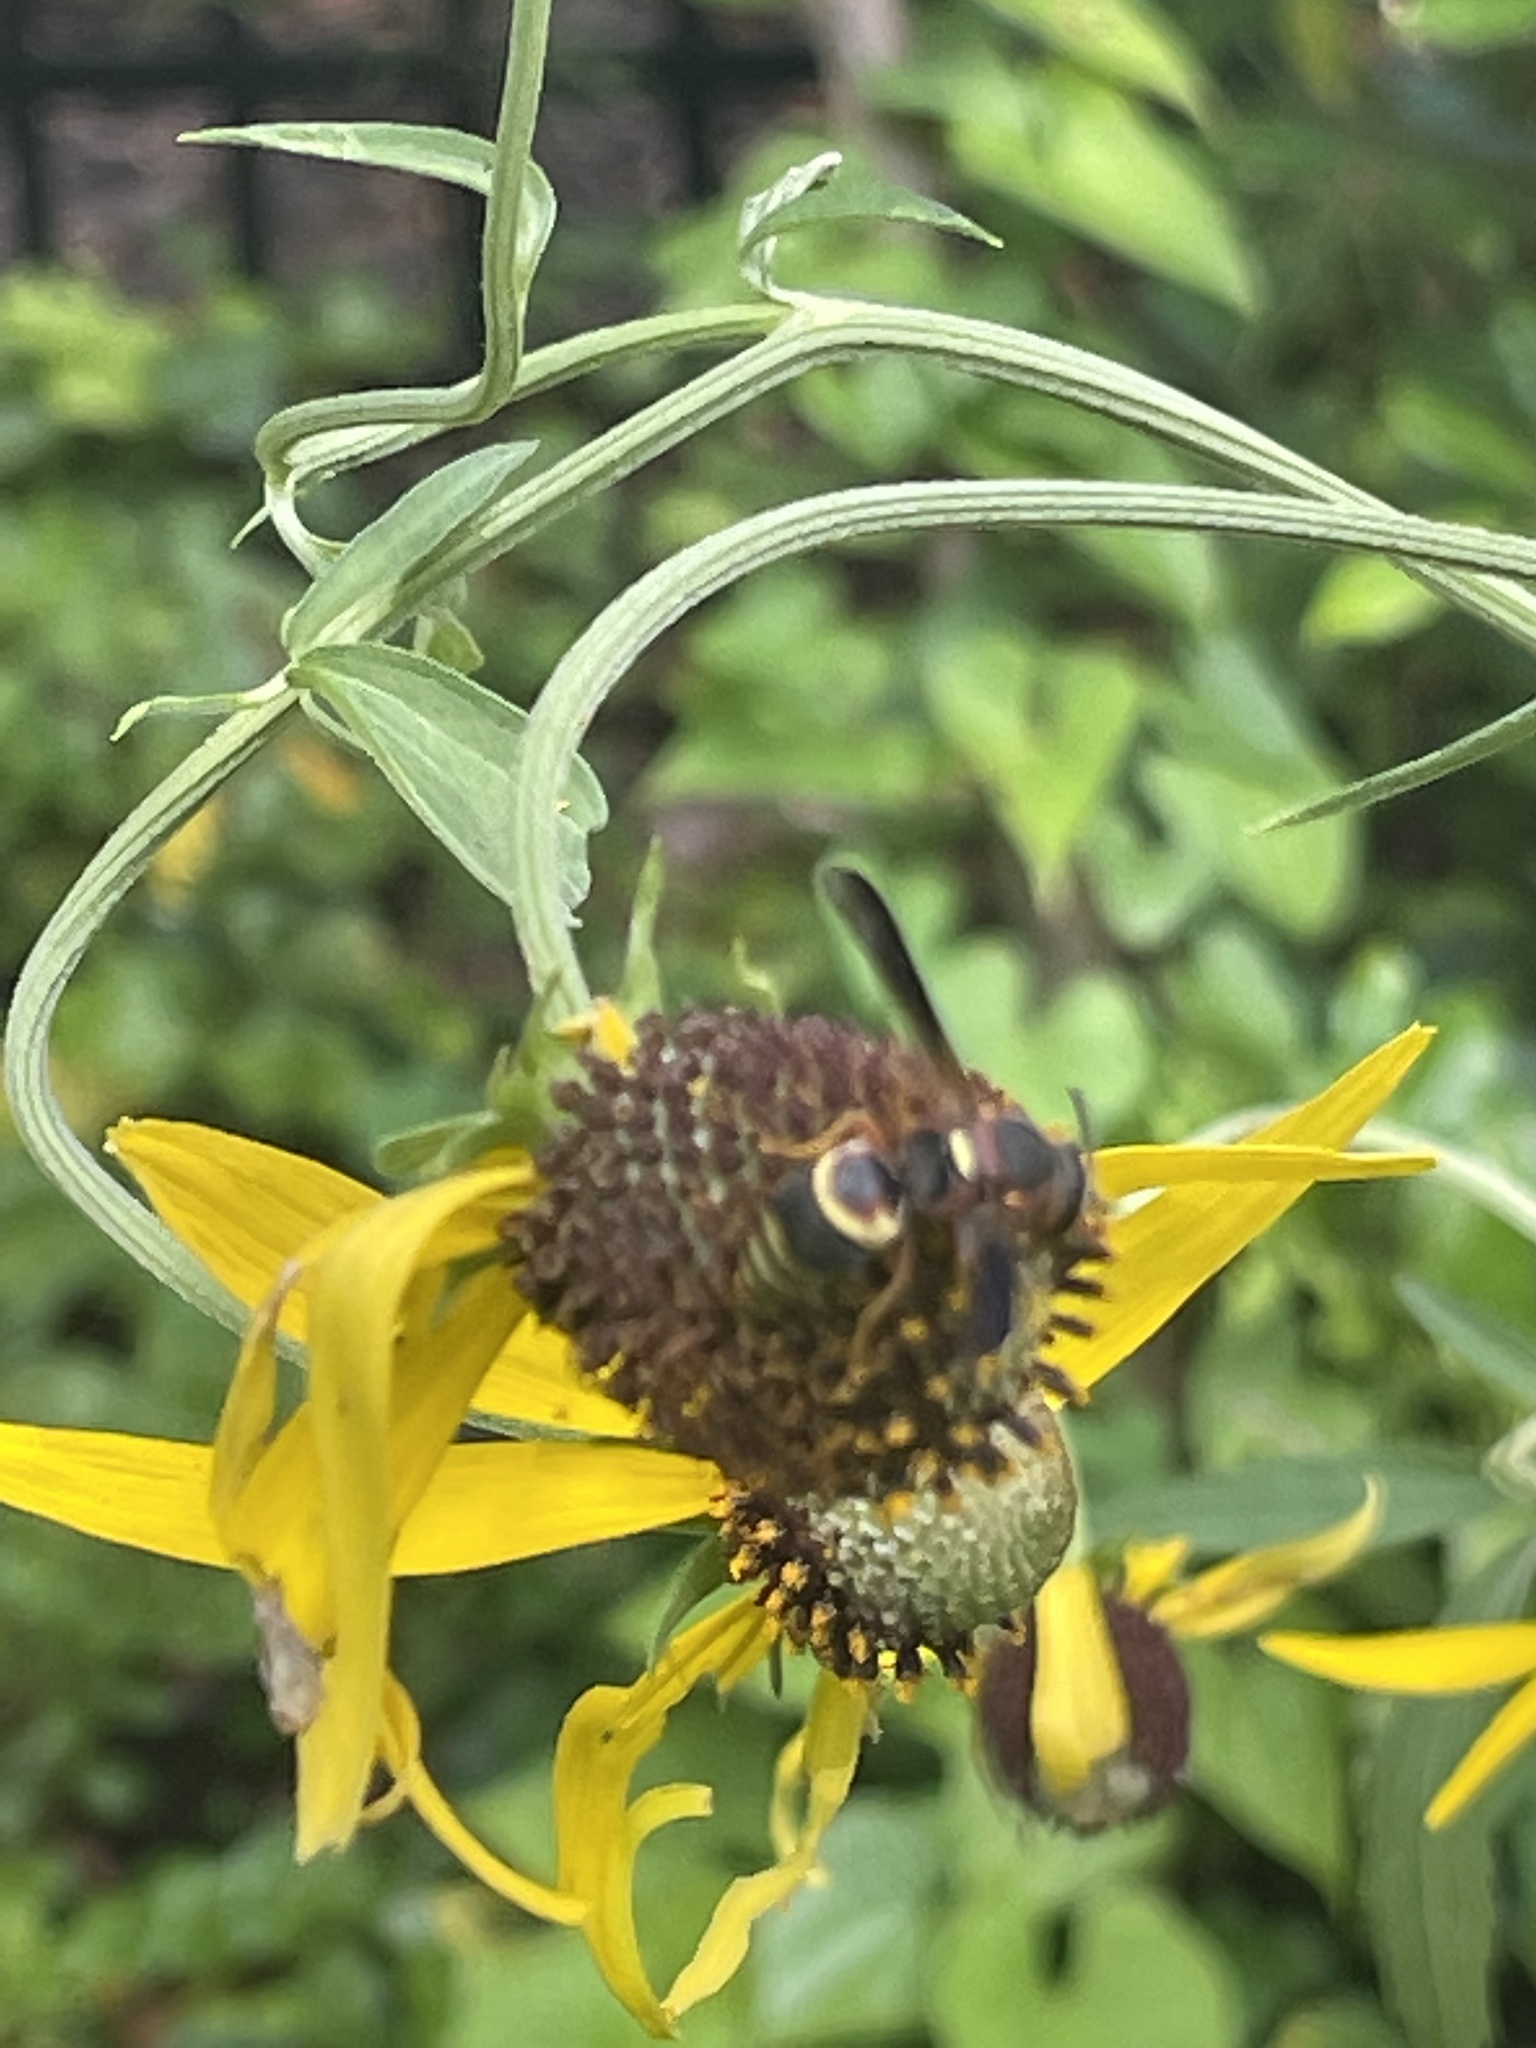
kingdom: Animalia
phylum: Arthropoda
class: Insecta
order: Hymenoptera
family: Eumenidae
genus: Euodynerus
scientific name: Euodynerus
